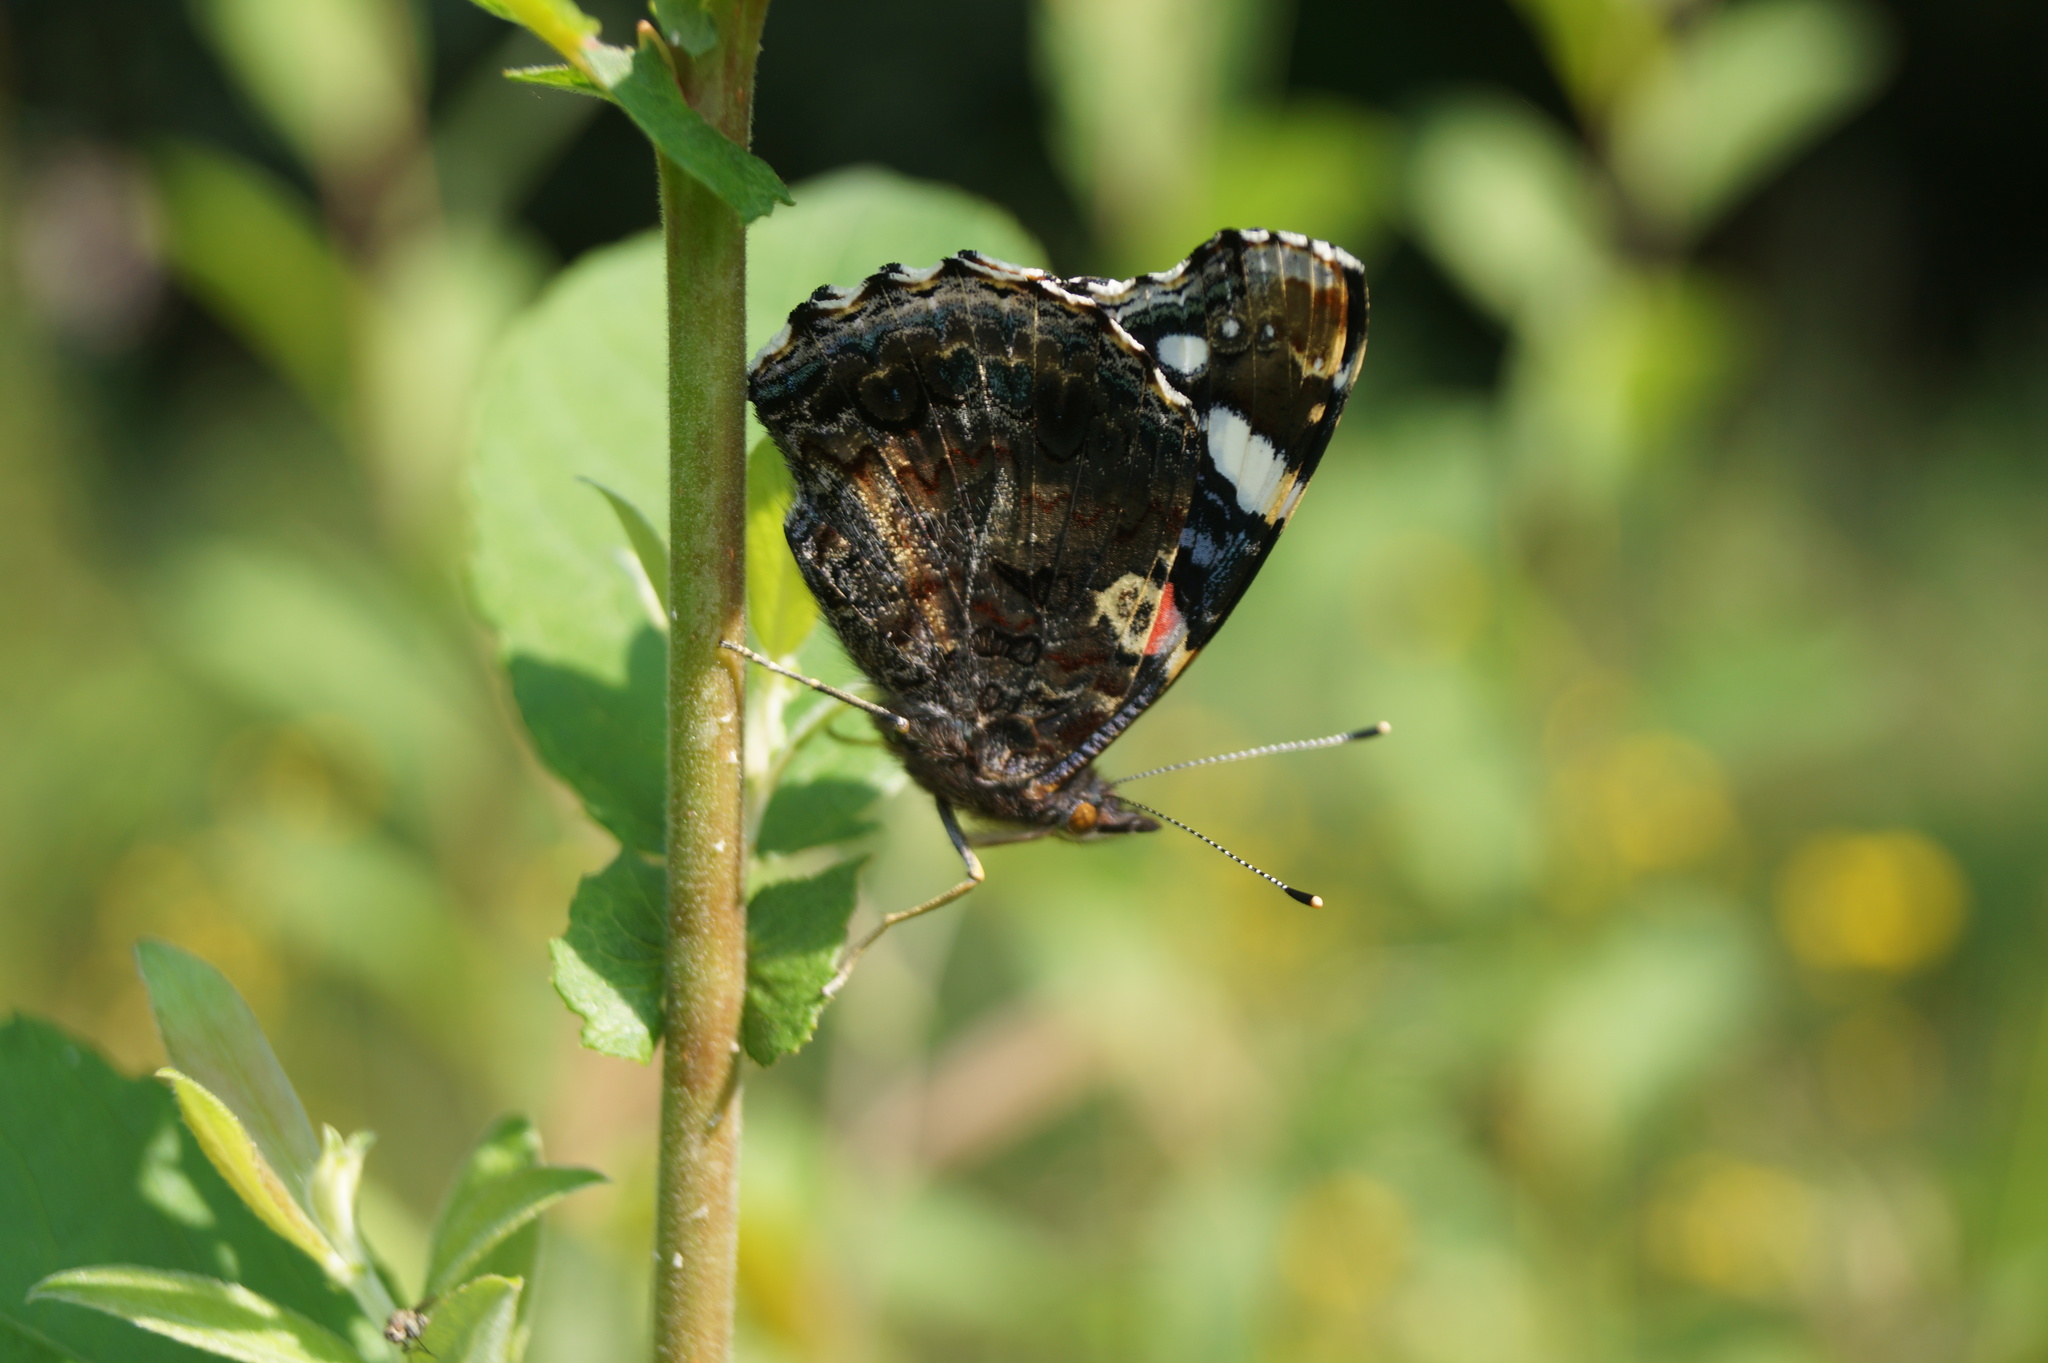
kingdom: Animalia
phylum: Arthropoda
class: Insecta
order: Lepidoptera
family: Nymphalidae
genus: Vanessa
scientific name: Vanessa atalanta
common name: Red admiral
